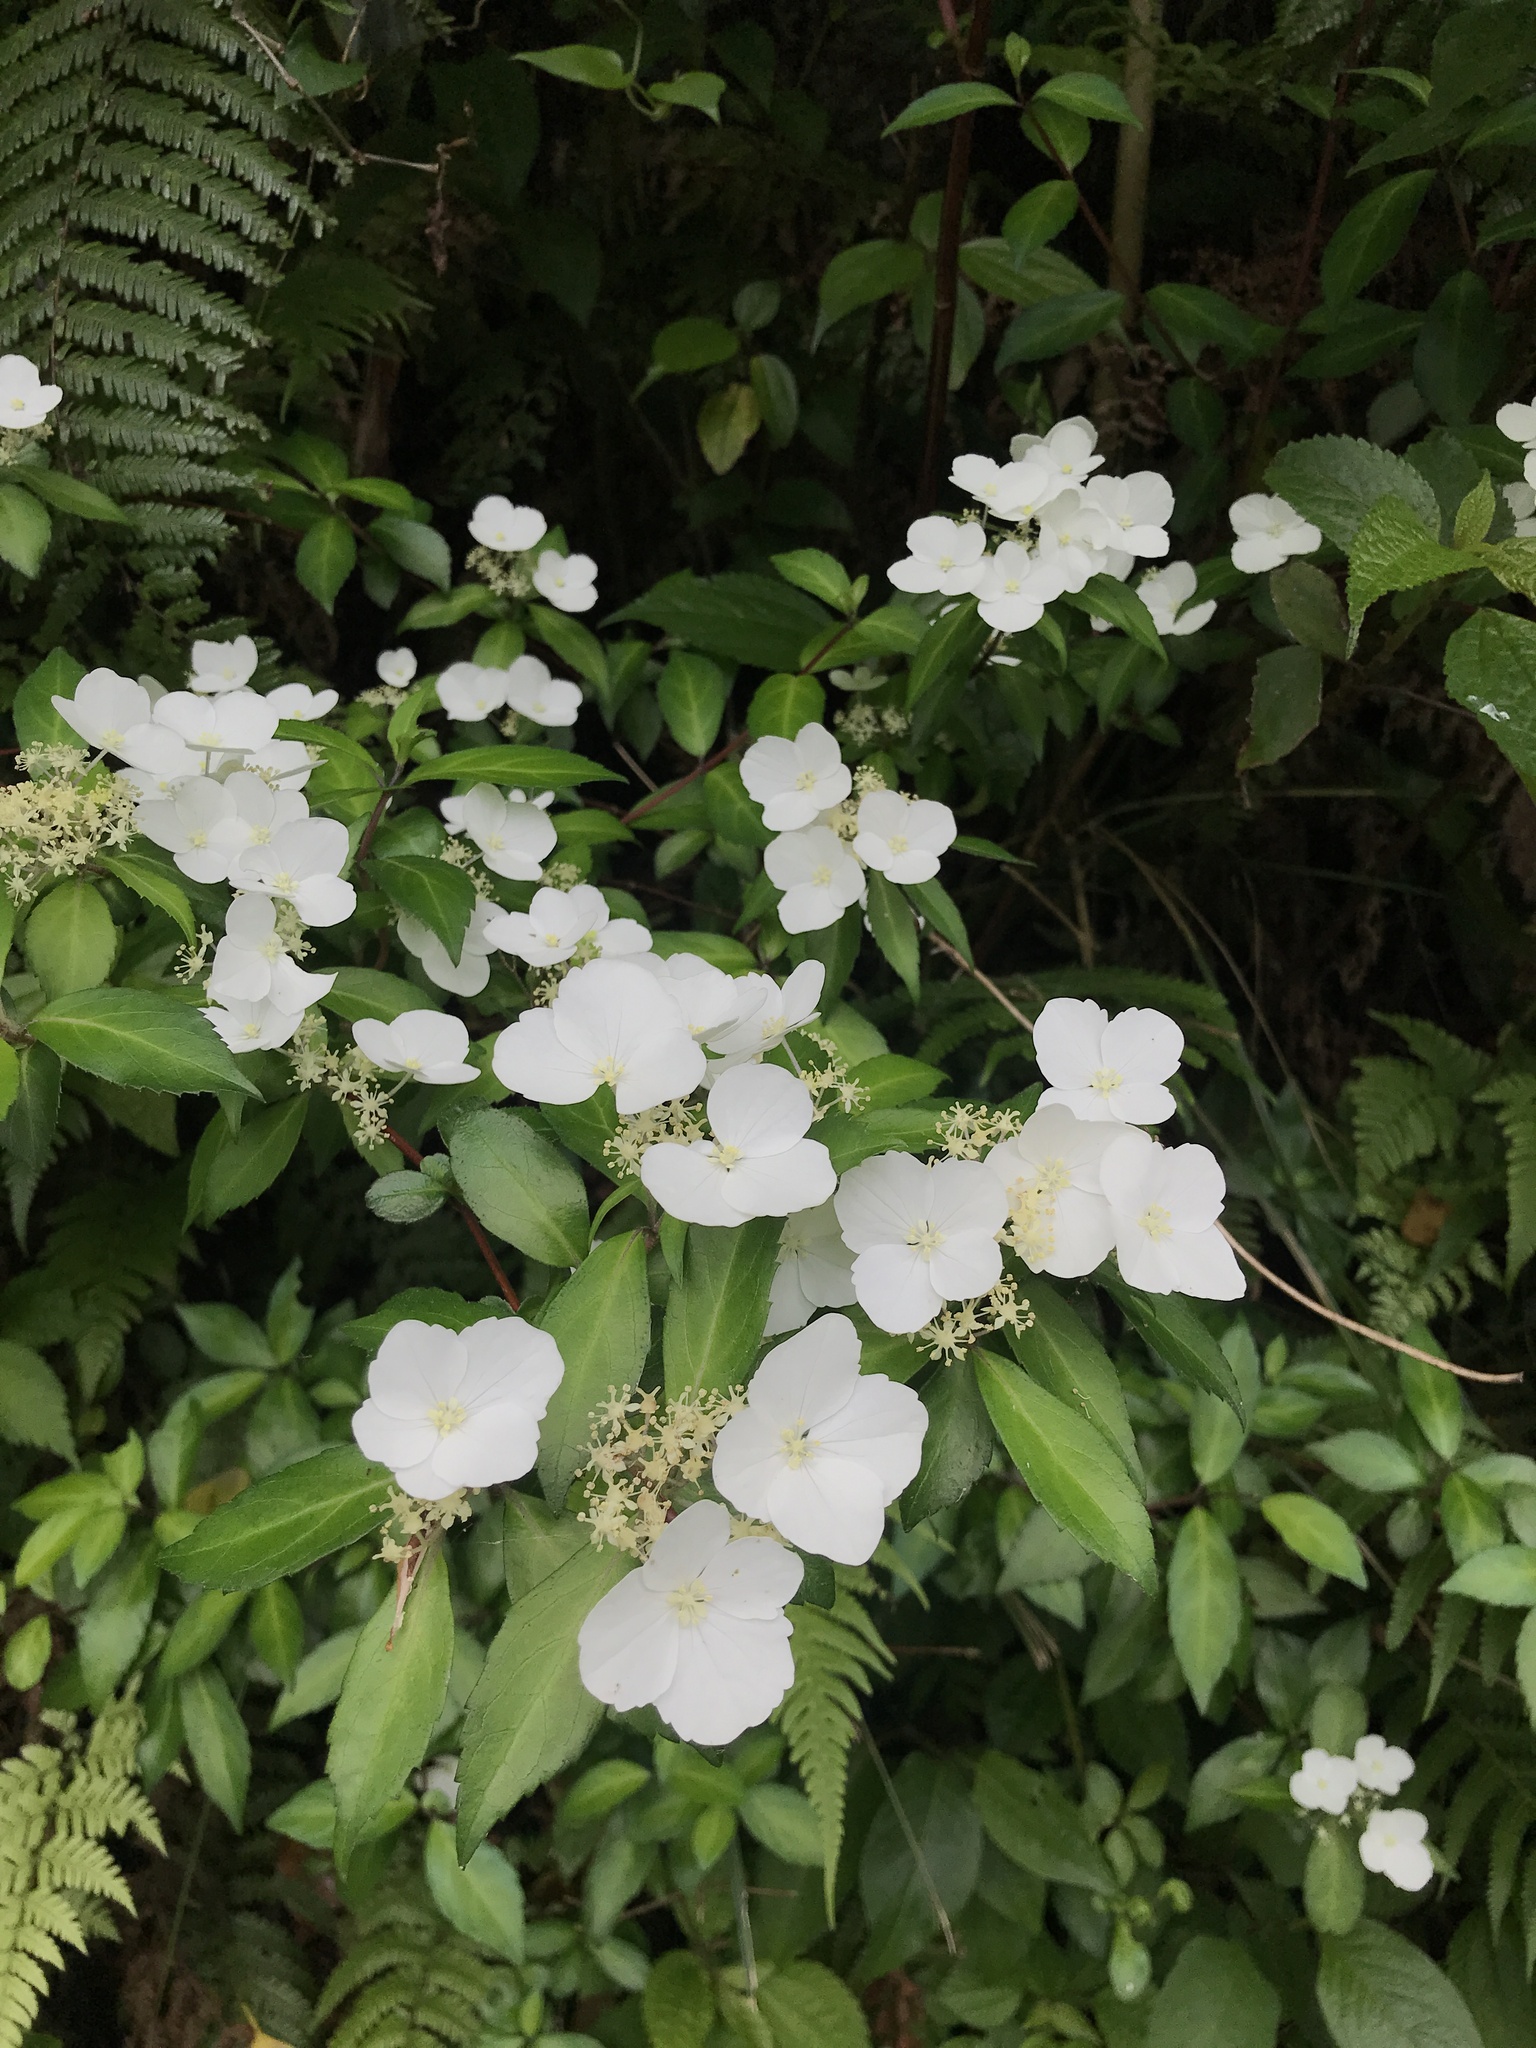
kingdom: Plantae
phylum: Tracheophyta
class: Magnoliopsida
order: Cornales
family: Hydrangeaceae
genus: Hydrangea
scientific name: Hydrangea luteovenosa
